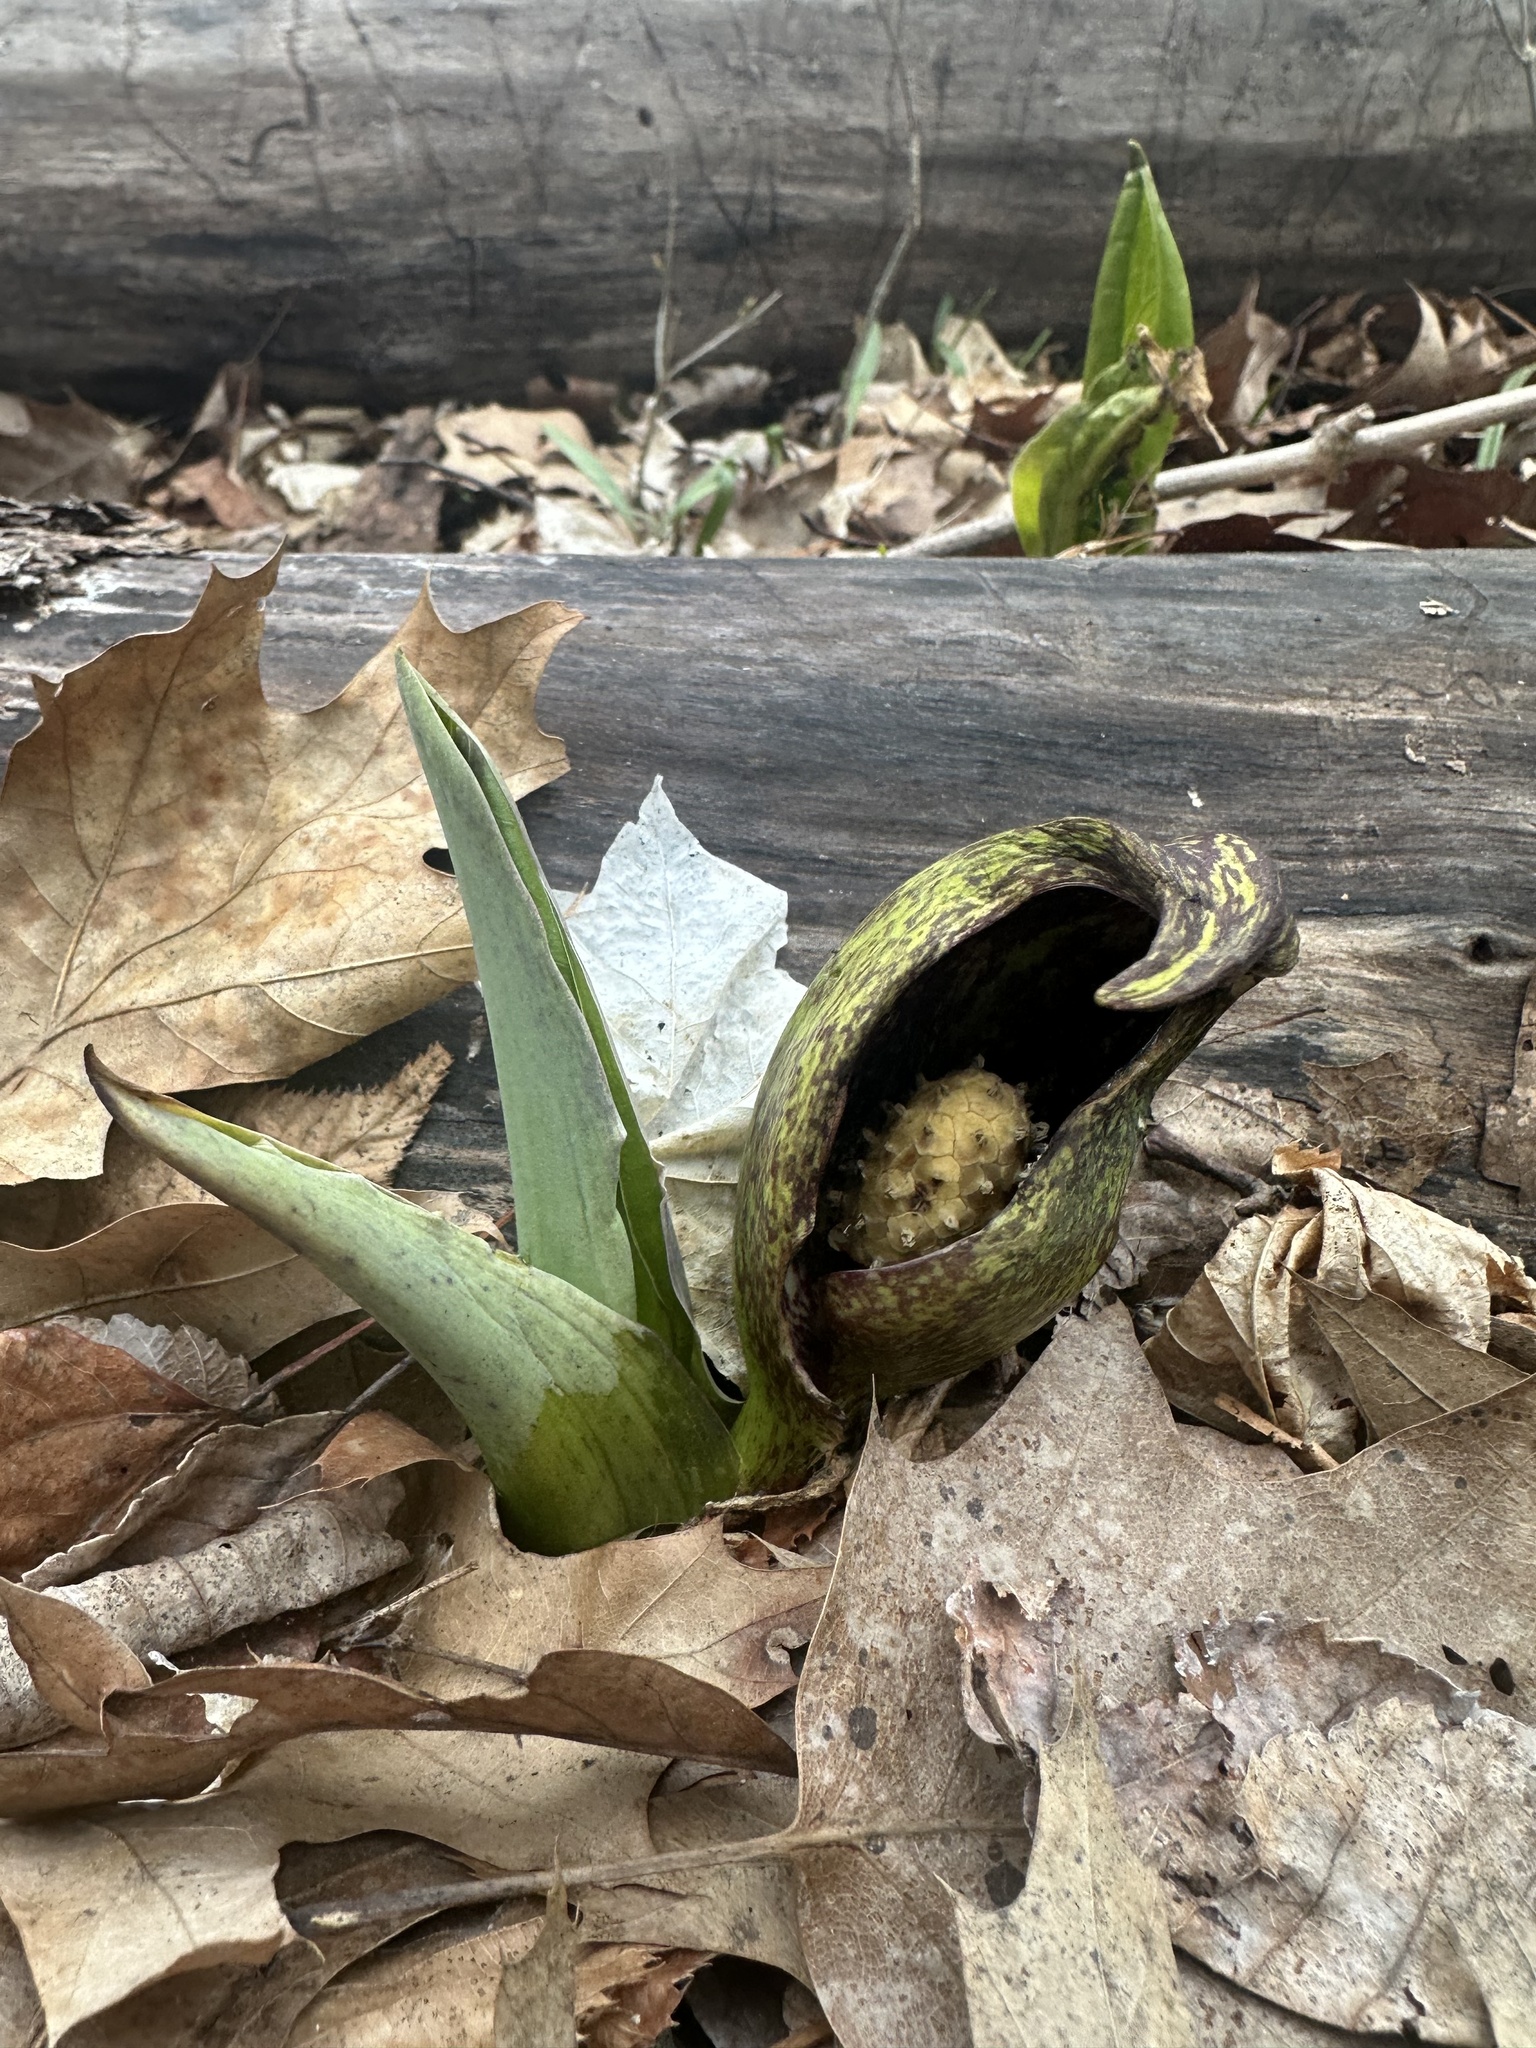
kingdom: Plantae
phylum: Tracheophyta
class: Liliopsida
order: Alismatales
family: Araceae
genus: Symplocarpus
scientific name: Symplocarpus foetidus
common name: Eastern skunk cabbage
